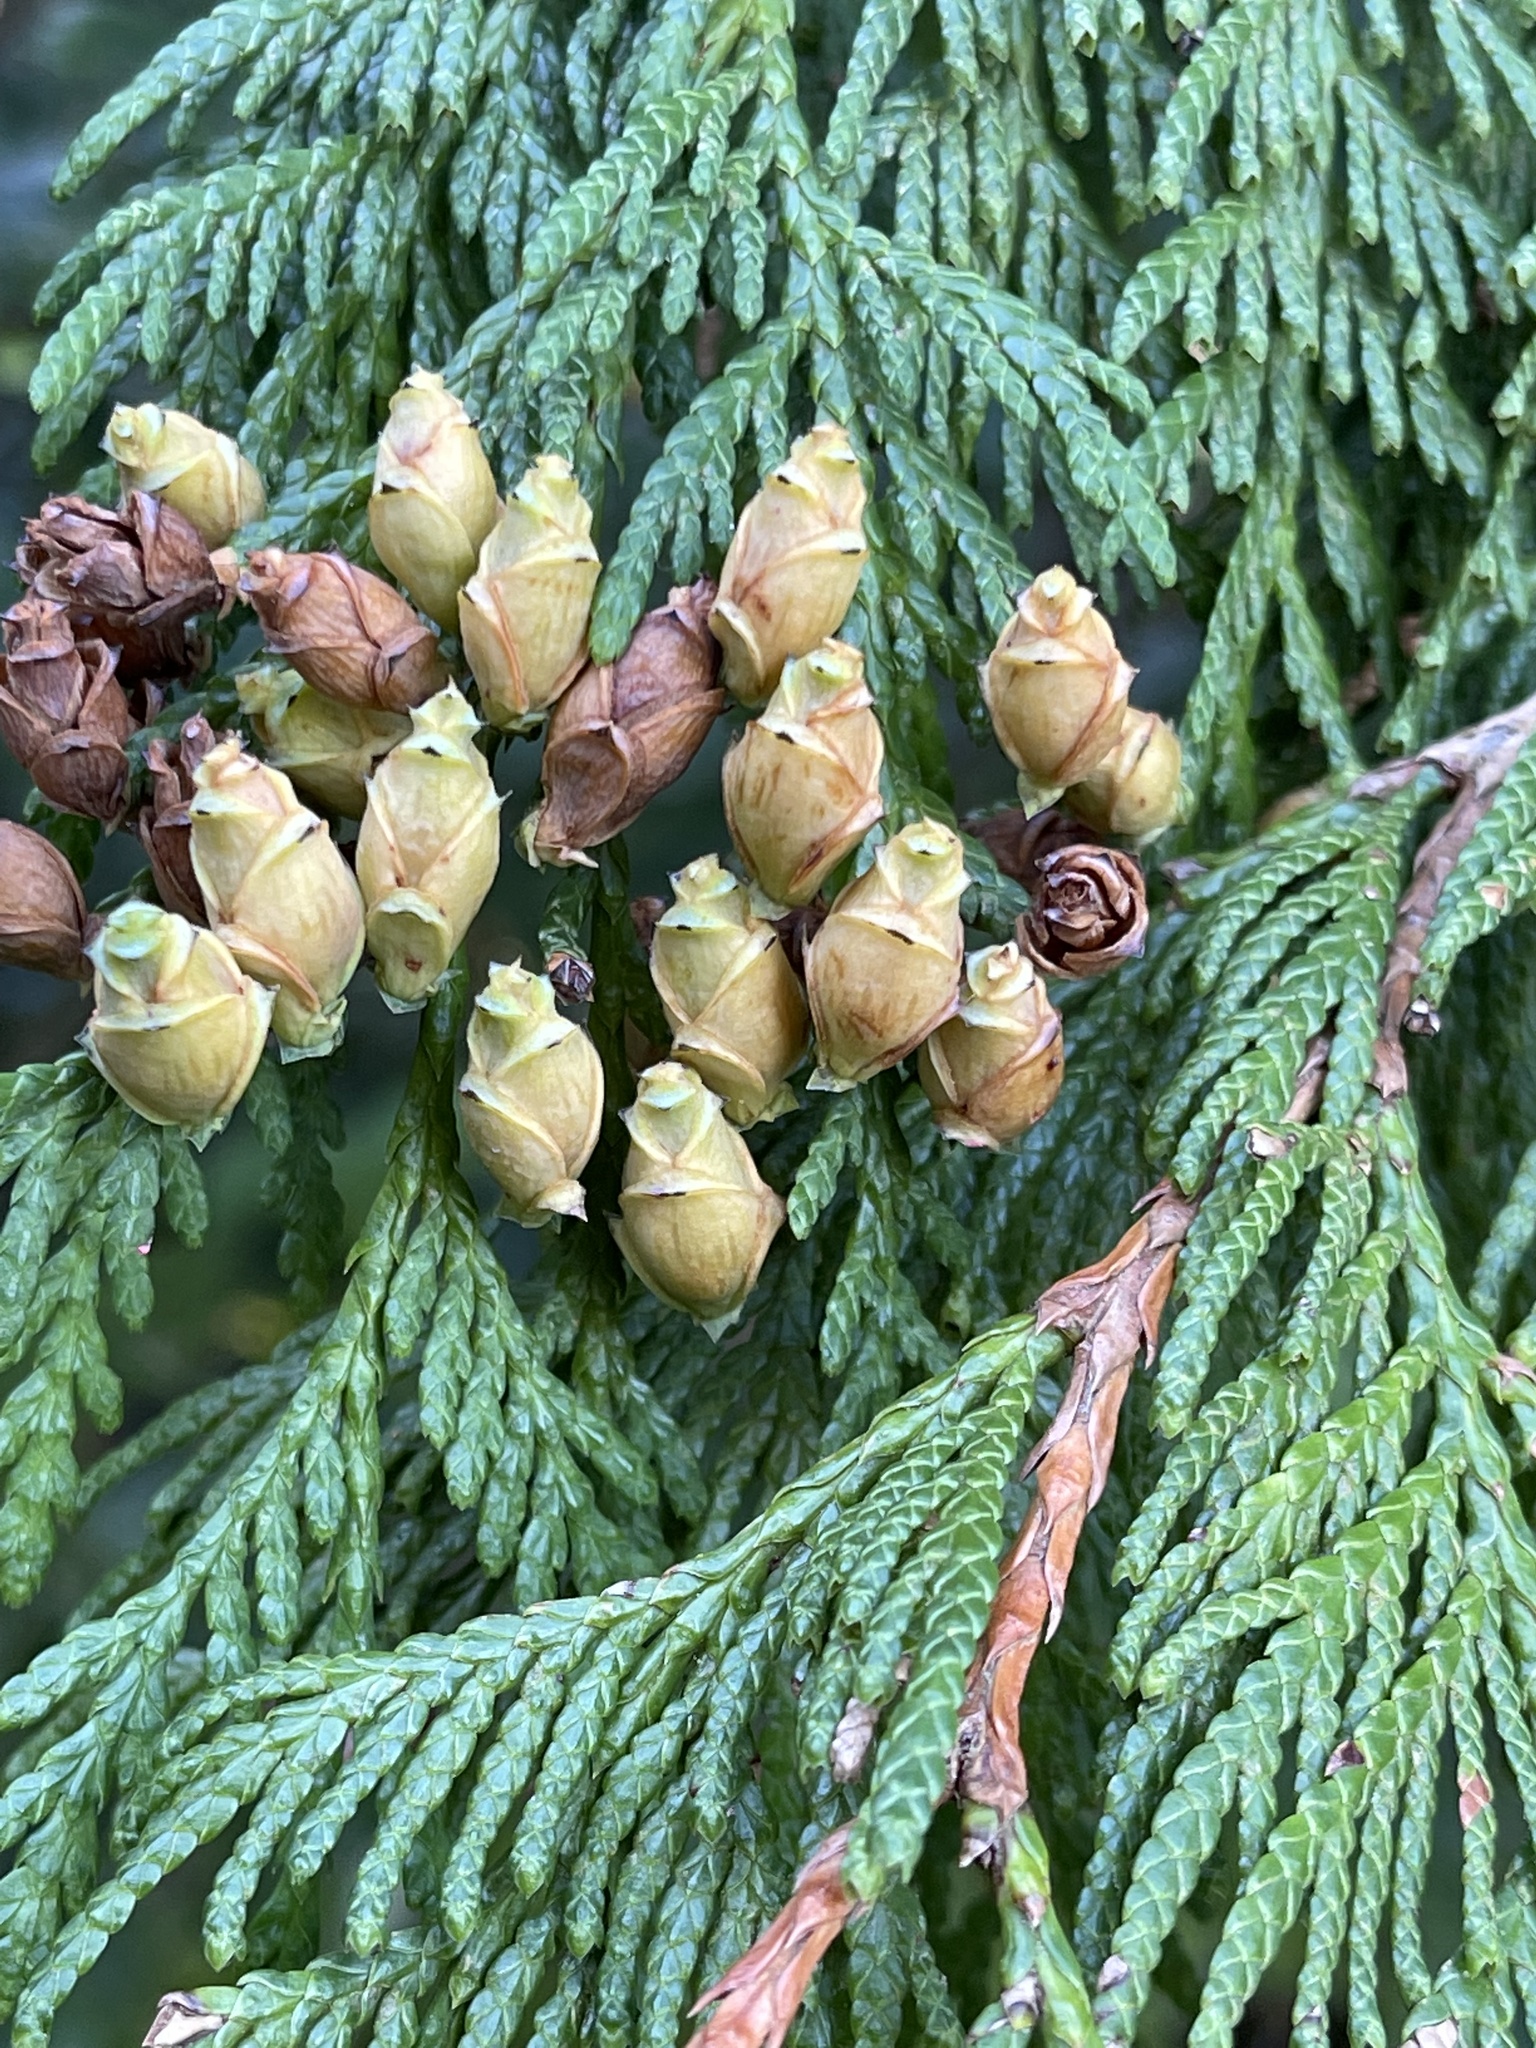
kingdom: Plantae
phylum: Tracheophyta
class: Pinopsida
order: Pinales
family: Cupressaceae
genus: Thuja
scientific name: Thuja plicata
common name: Western red-cedar
